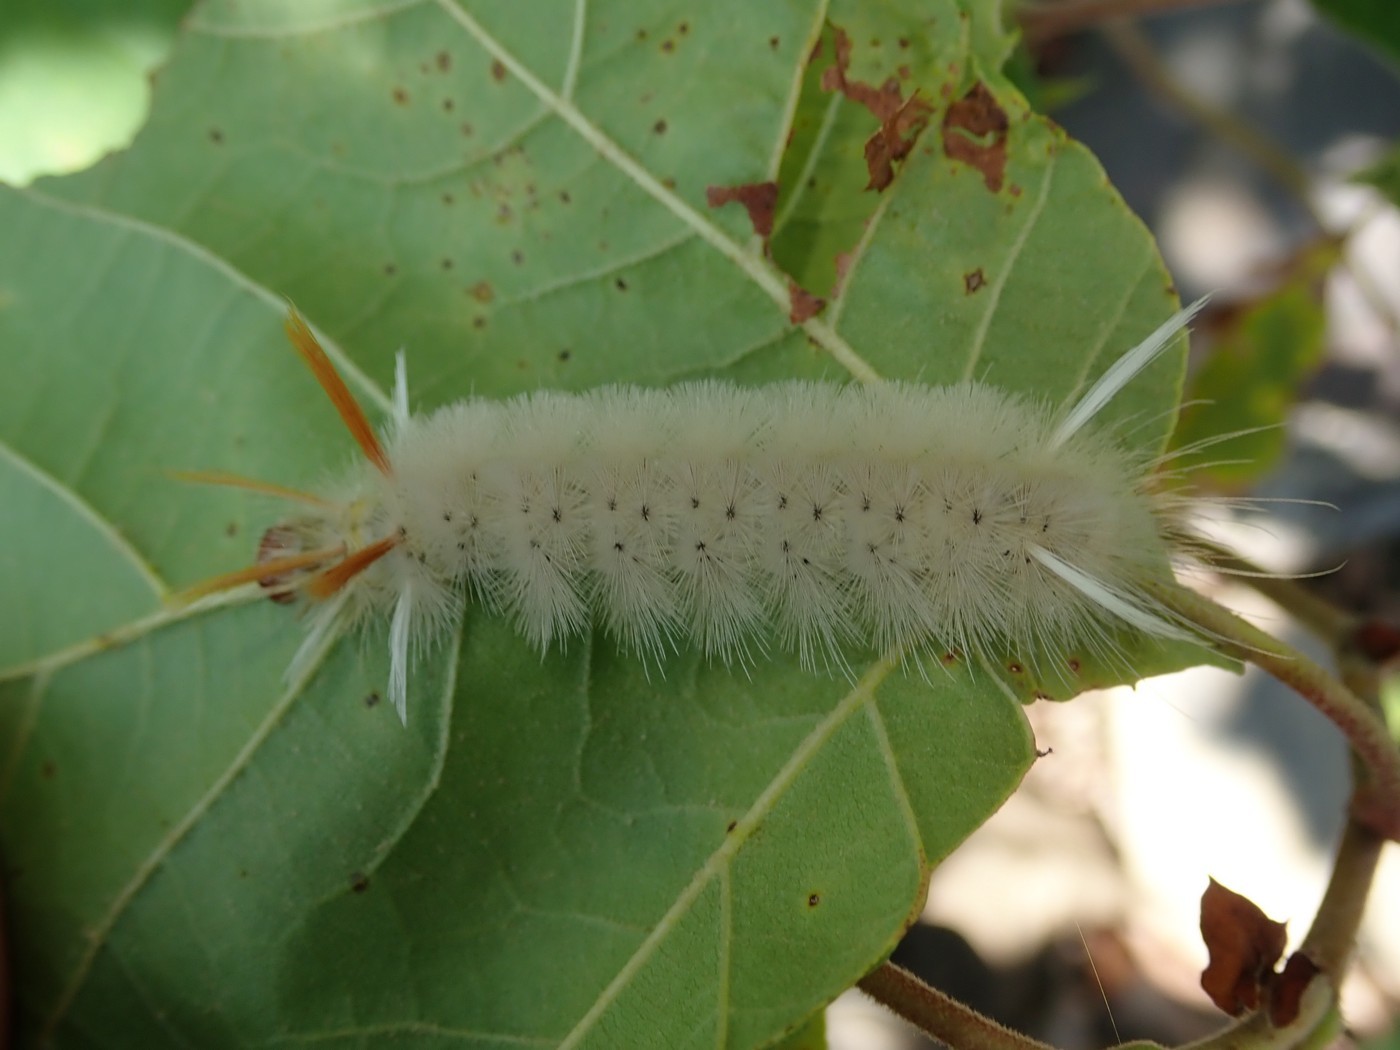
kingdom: Animalia
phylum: Arthropoda
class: Insecta
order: Lepidoptera
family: Erebidae
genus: Halysidota
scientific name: Halysidota harrisii
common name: Sycamore tussock moth
